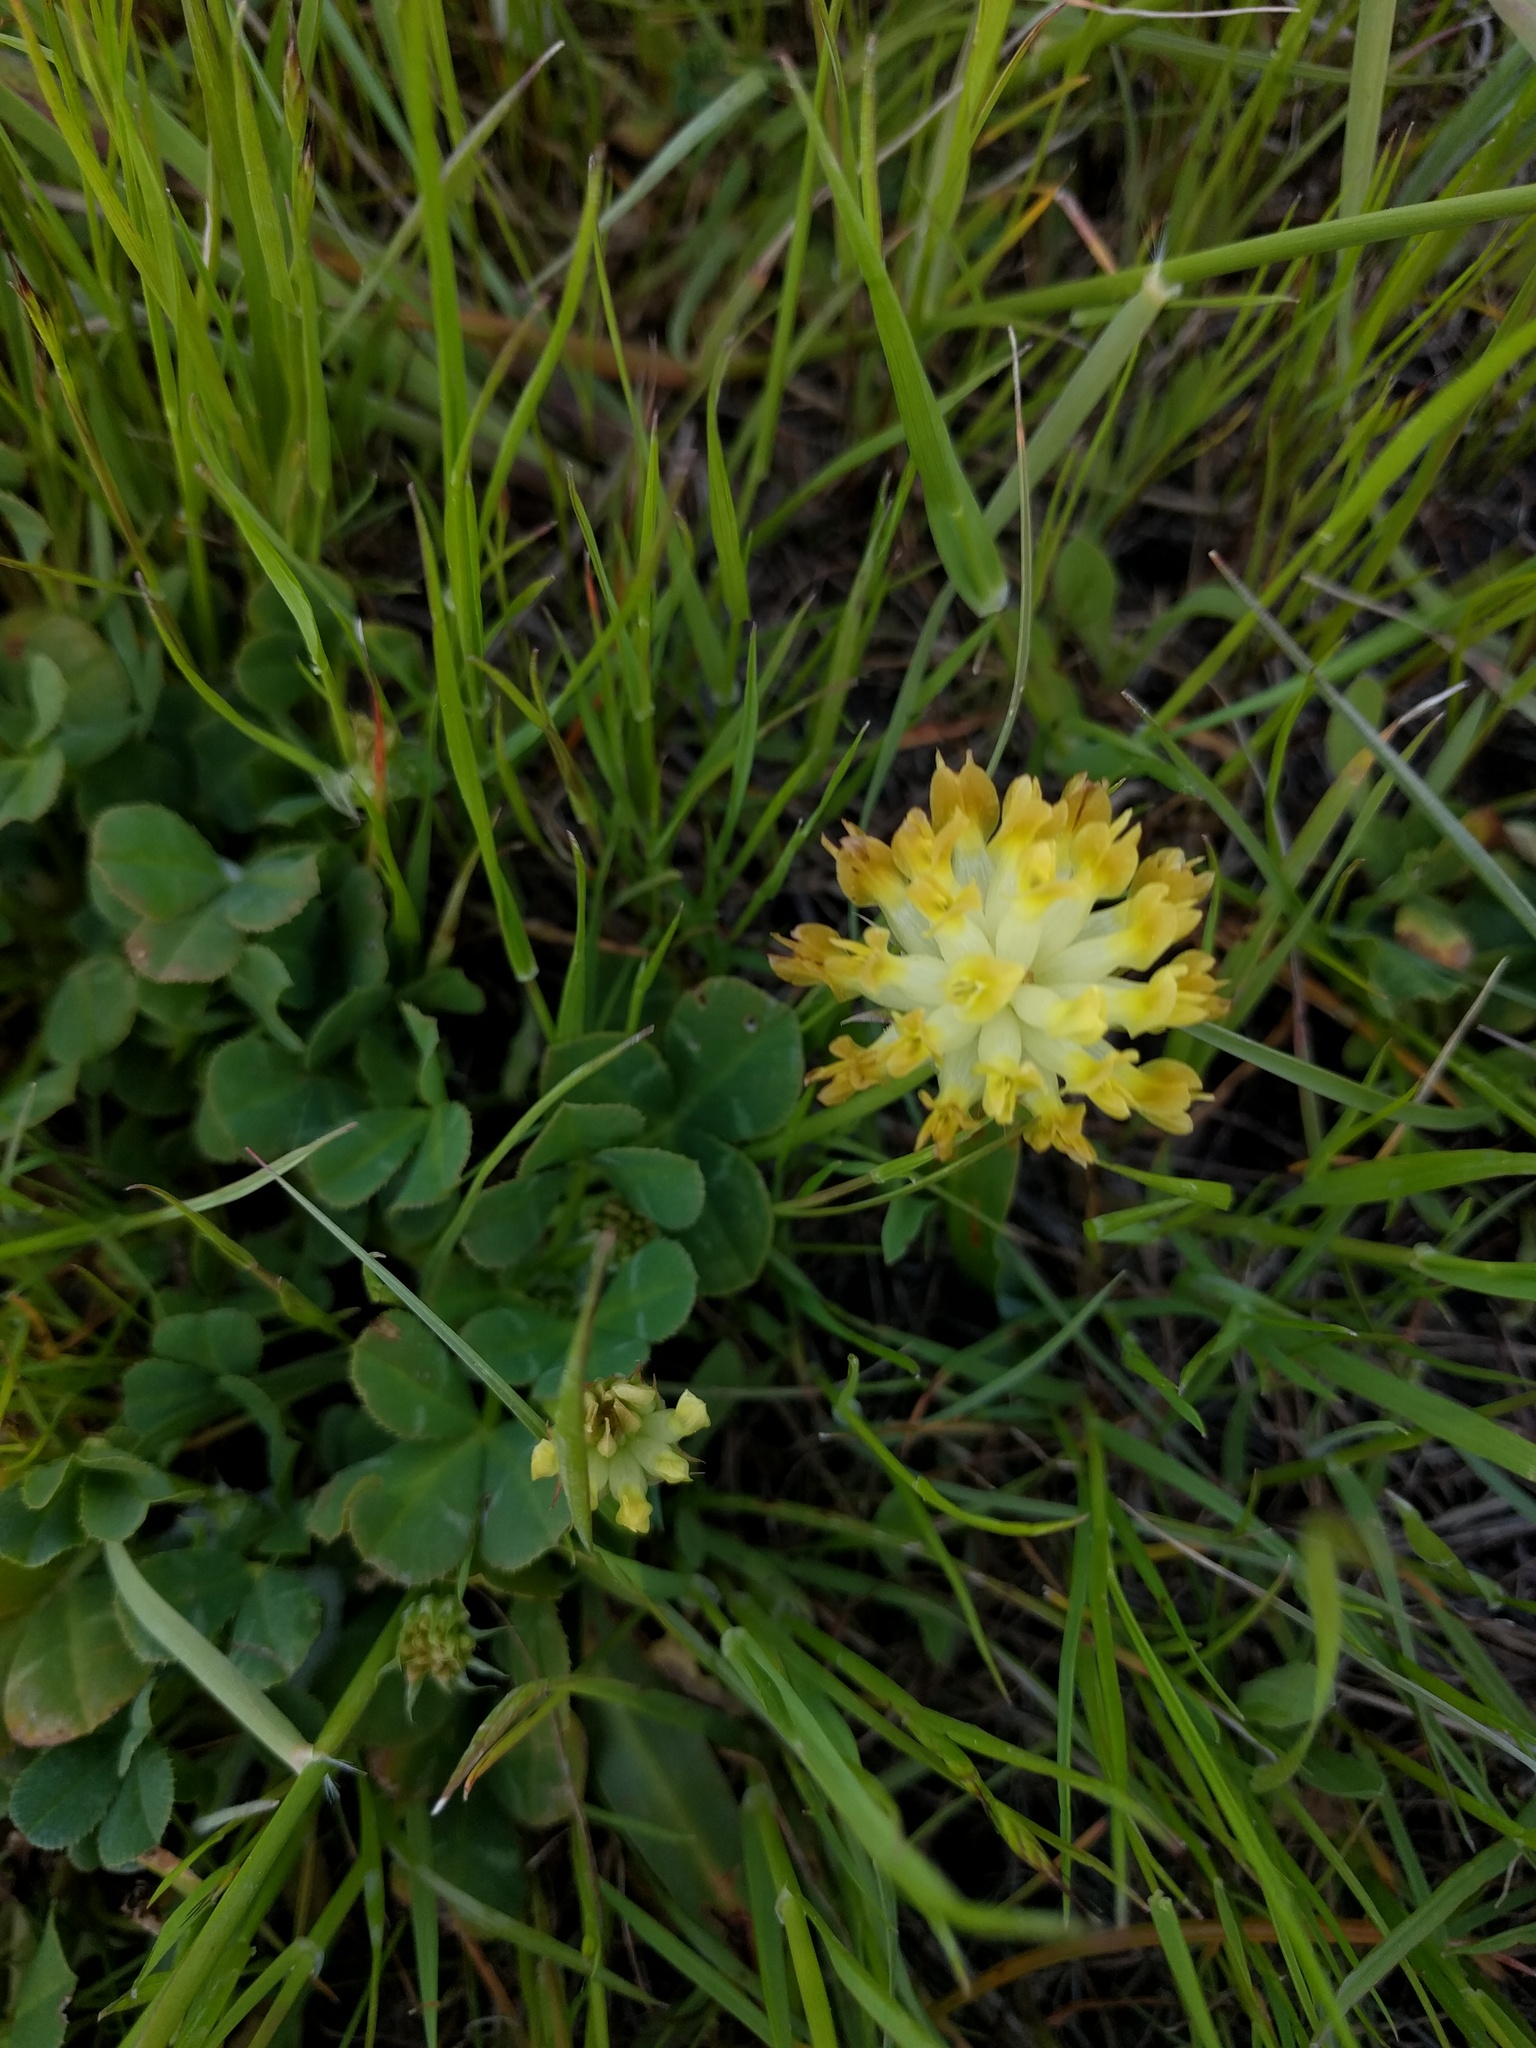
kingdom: Plantae
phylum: Tracheophyta
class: Magnoliopsida
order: Fabales
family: Fabaceae
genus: Trifolium
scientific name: Trifolium fucatum
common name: Puff clover
